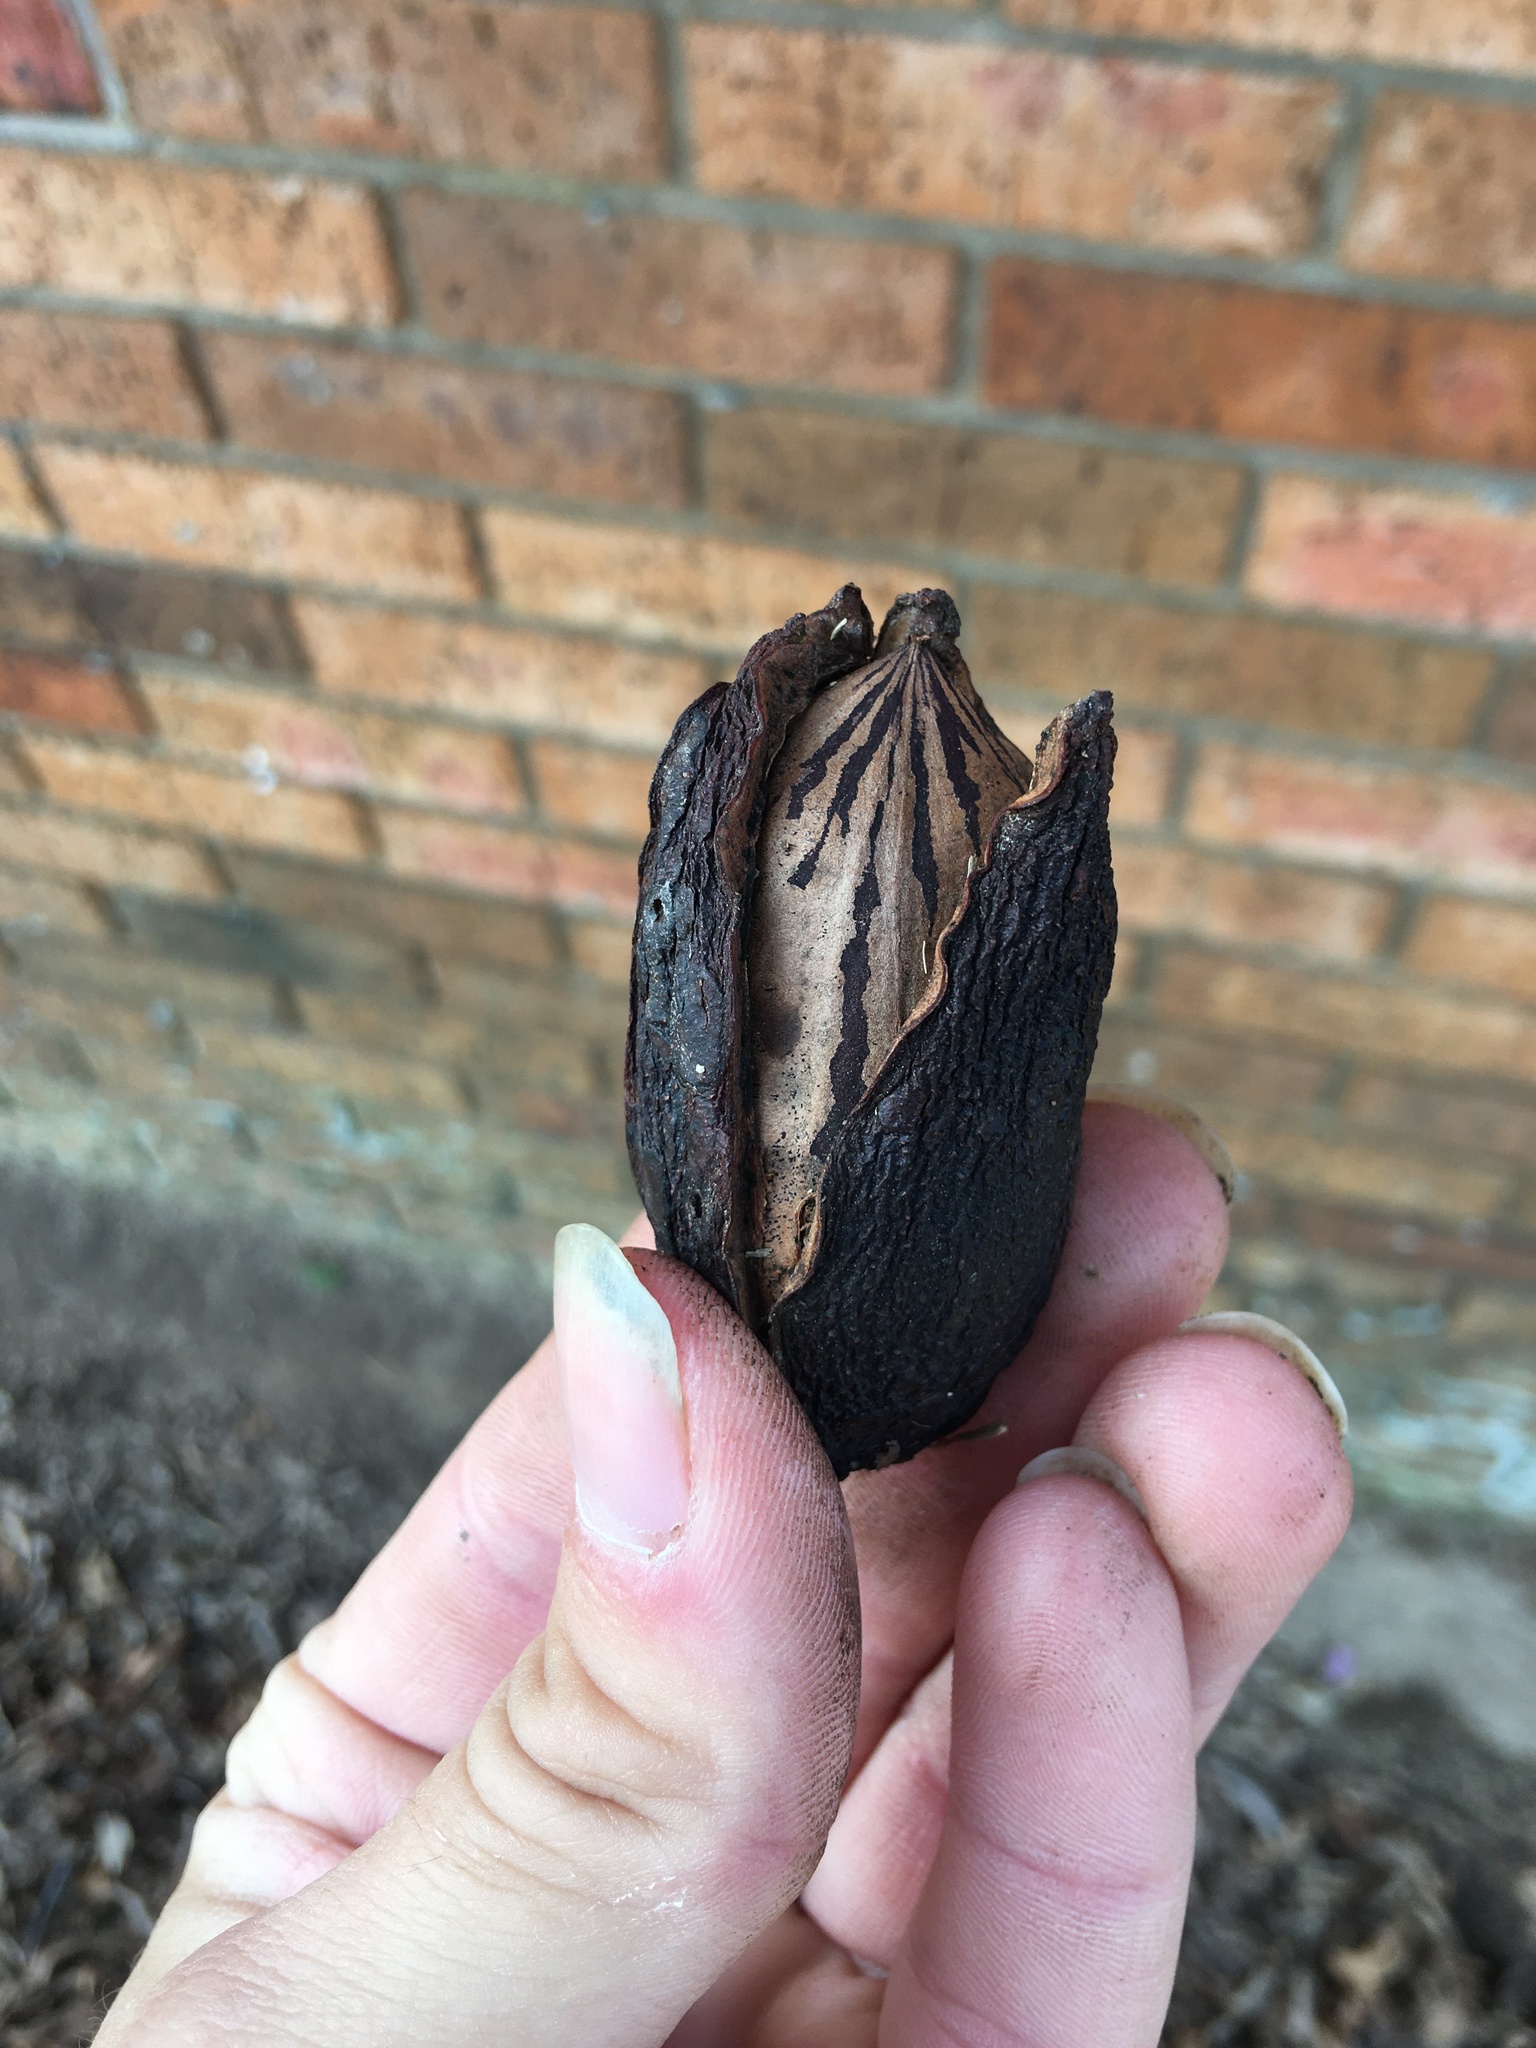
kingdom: Plantae
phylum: Tracheophyta
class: Magnoliopsida
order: Fagales
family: Juglandaceae
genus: Carya
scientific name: Carya illinoinensis
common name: Pecan
